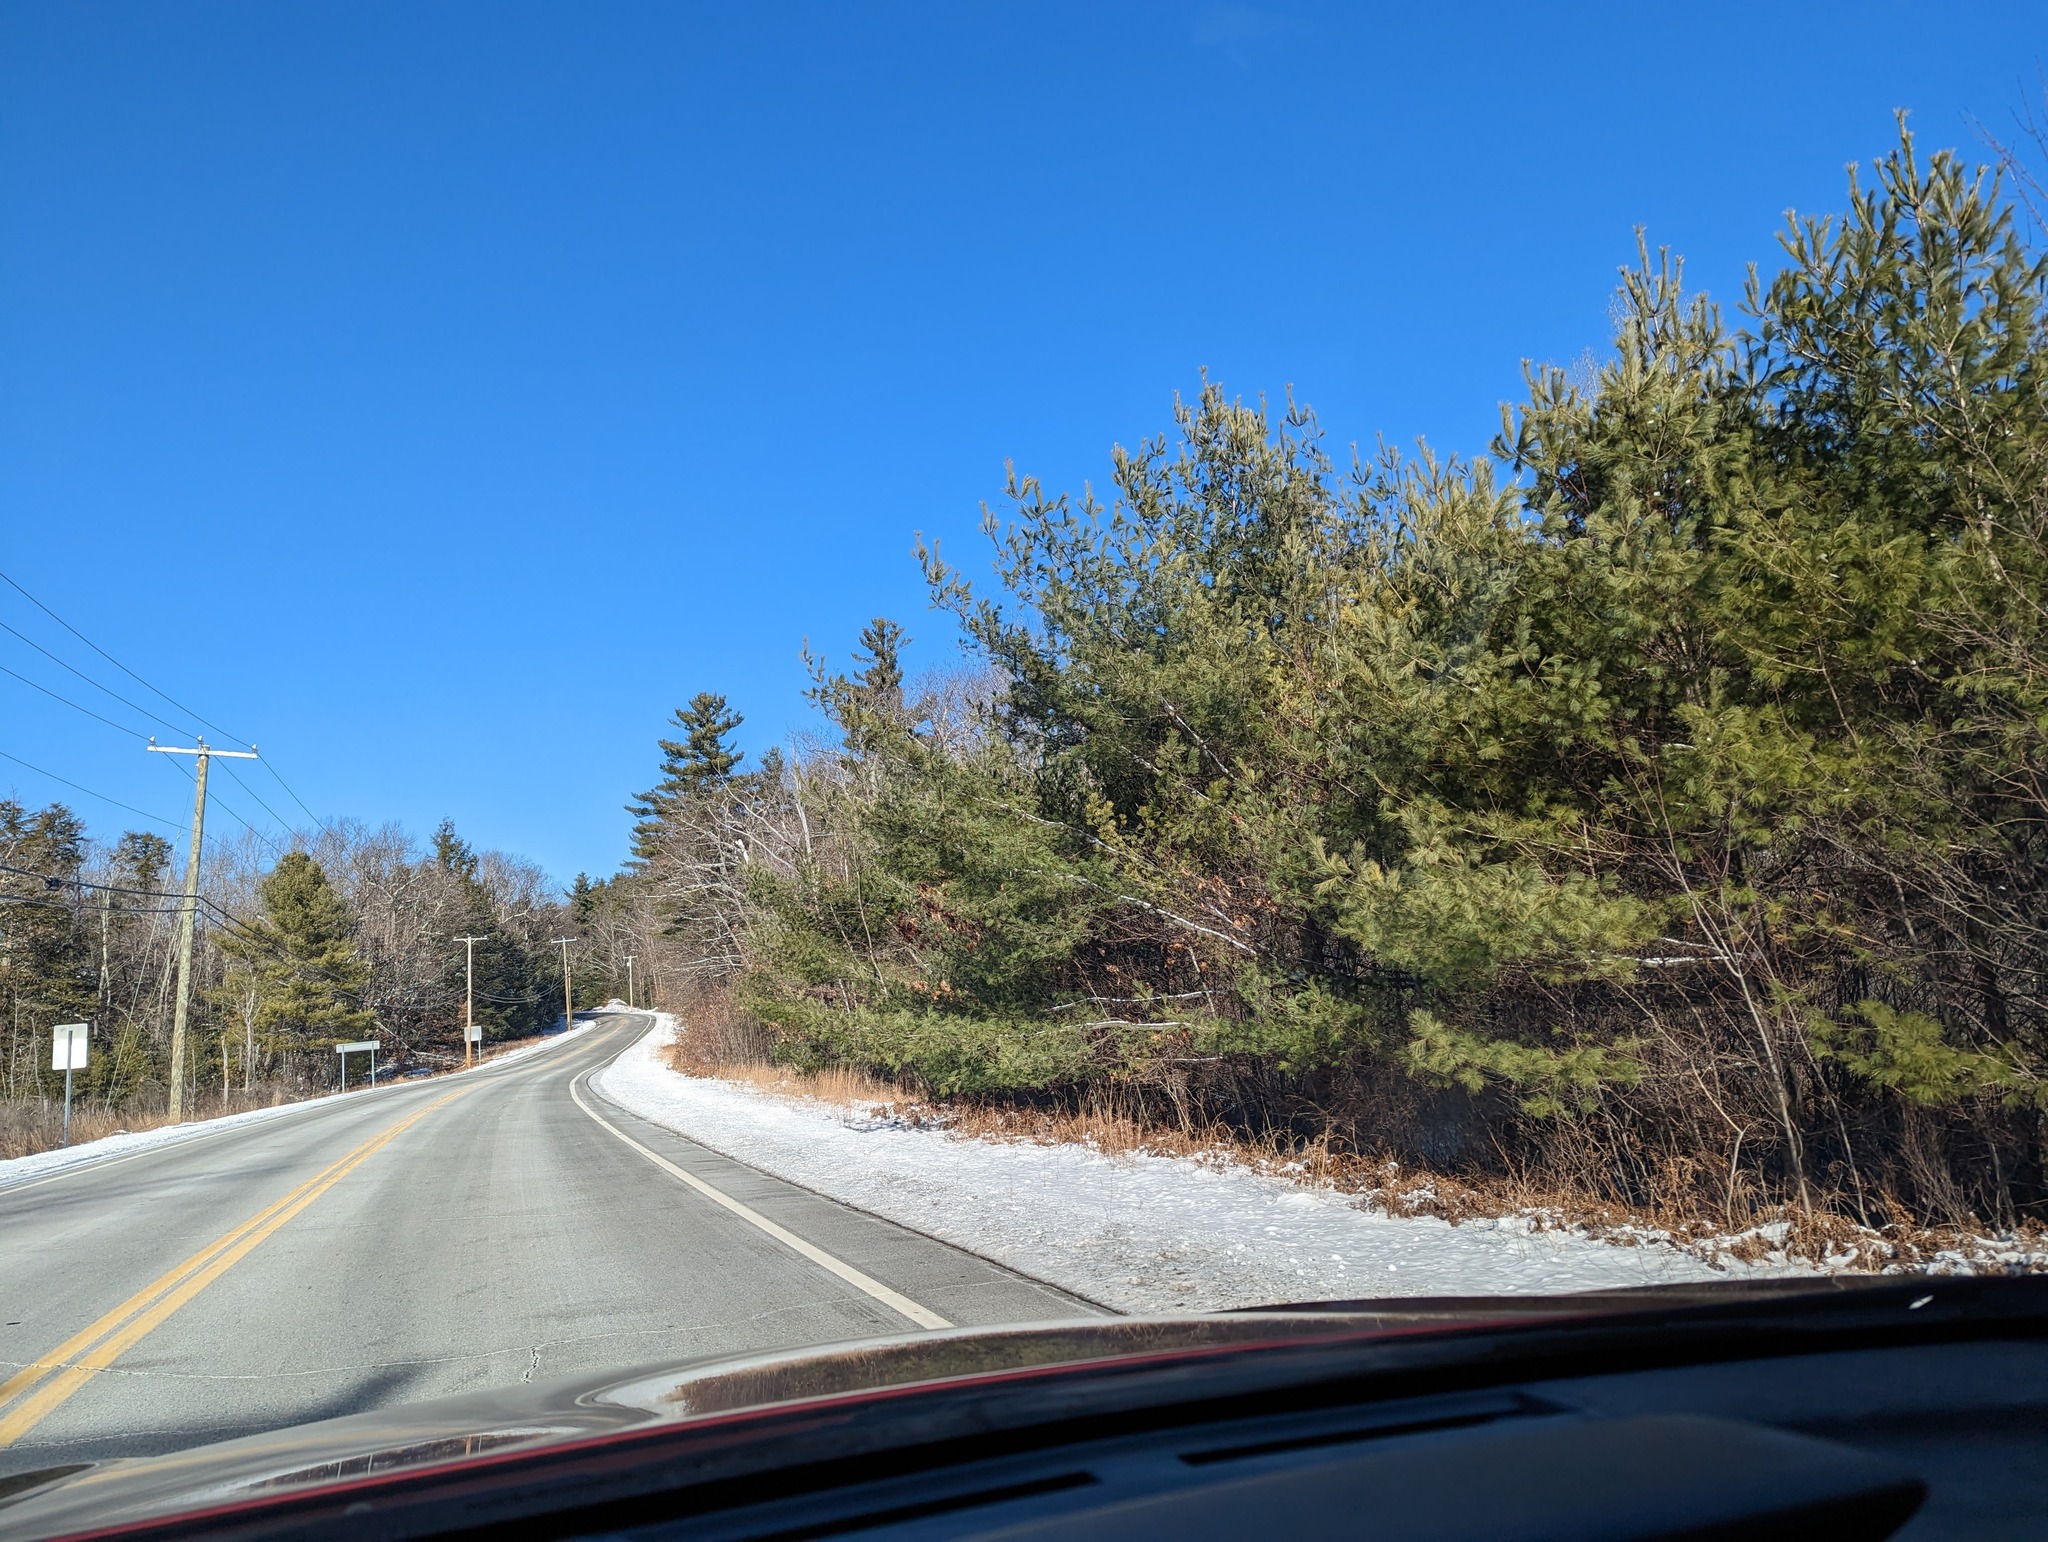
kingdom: Plantae
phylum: Tracheophyta
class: Pinopsida
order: Pinales
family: Pinaceae
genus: Pinus
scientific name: Pinus strobus
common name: Weymouth pine
